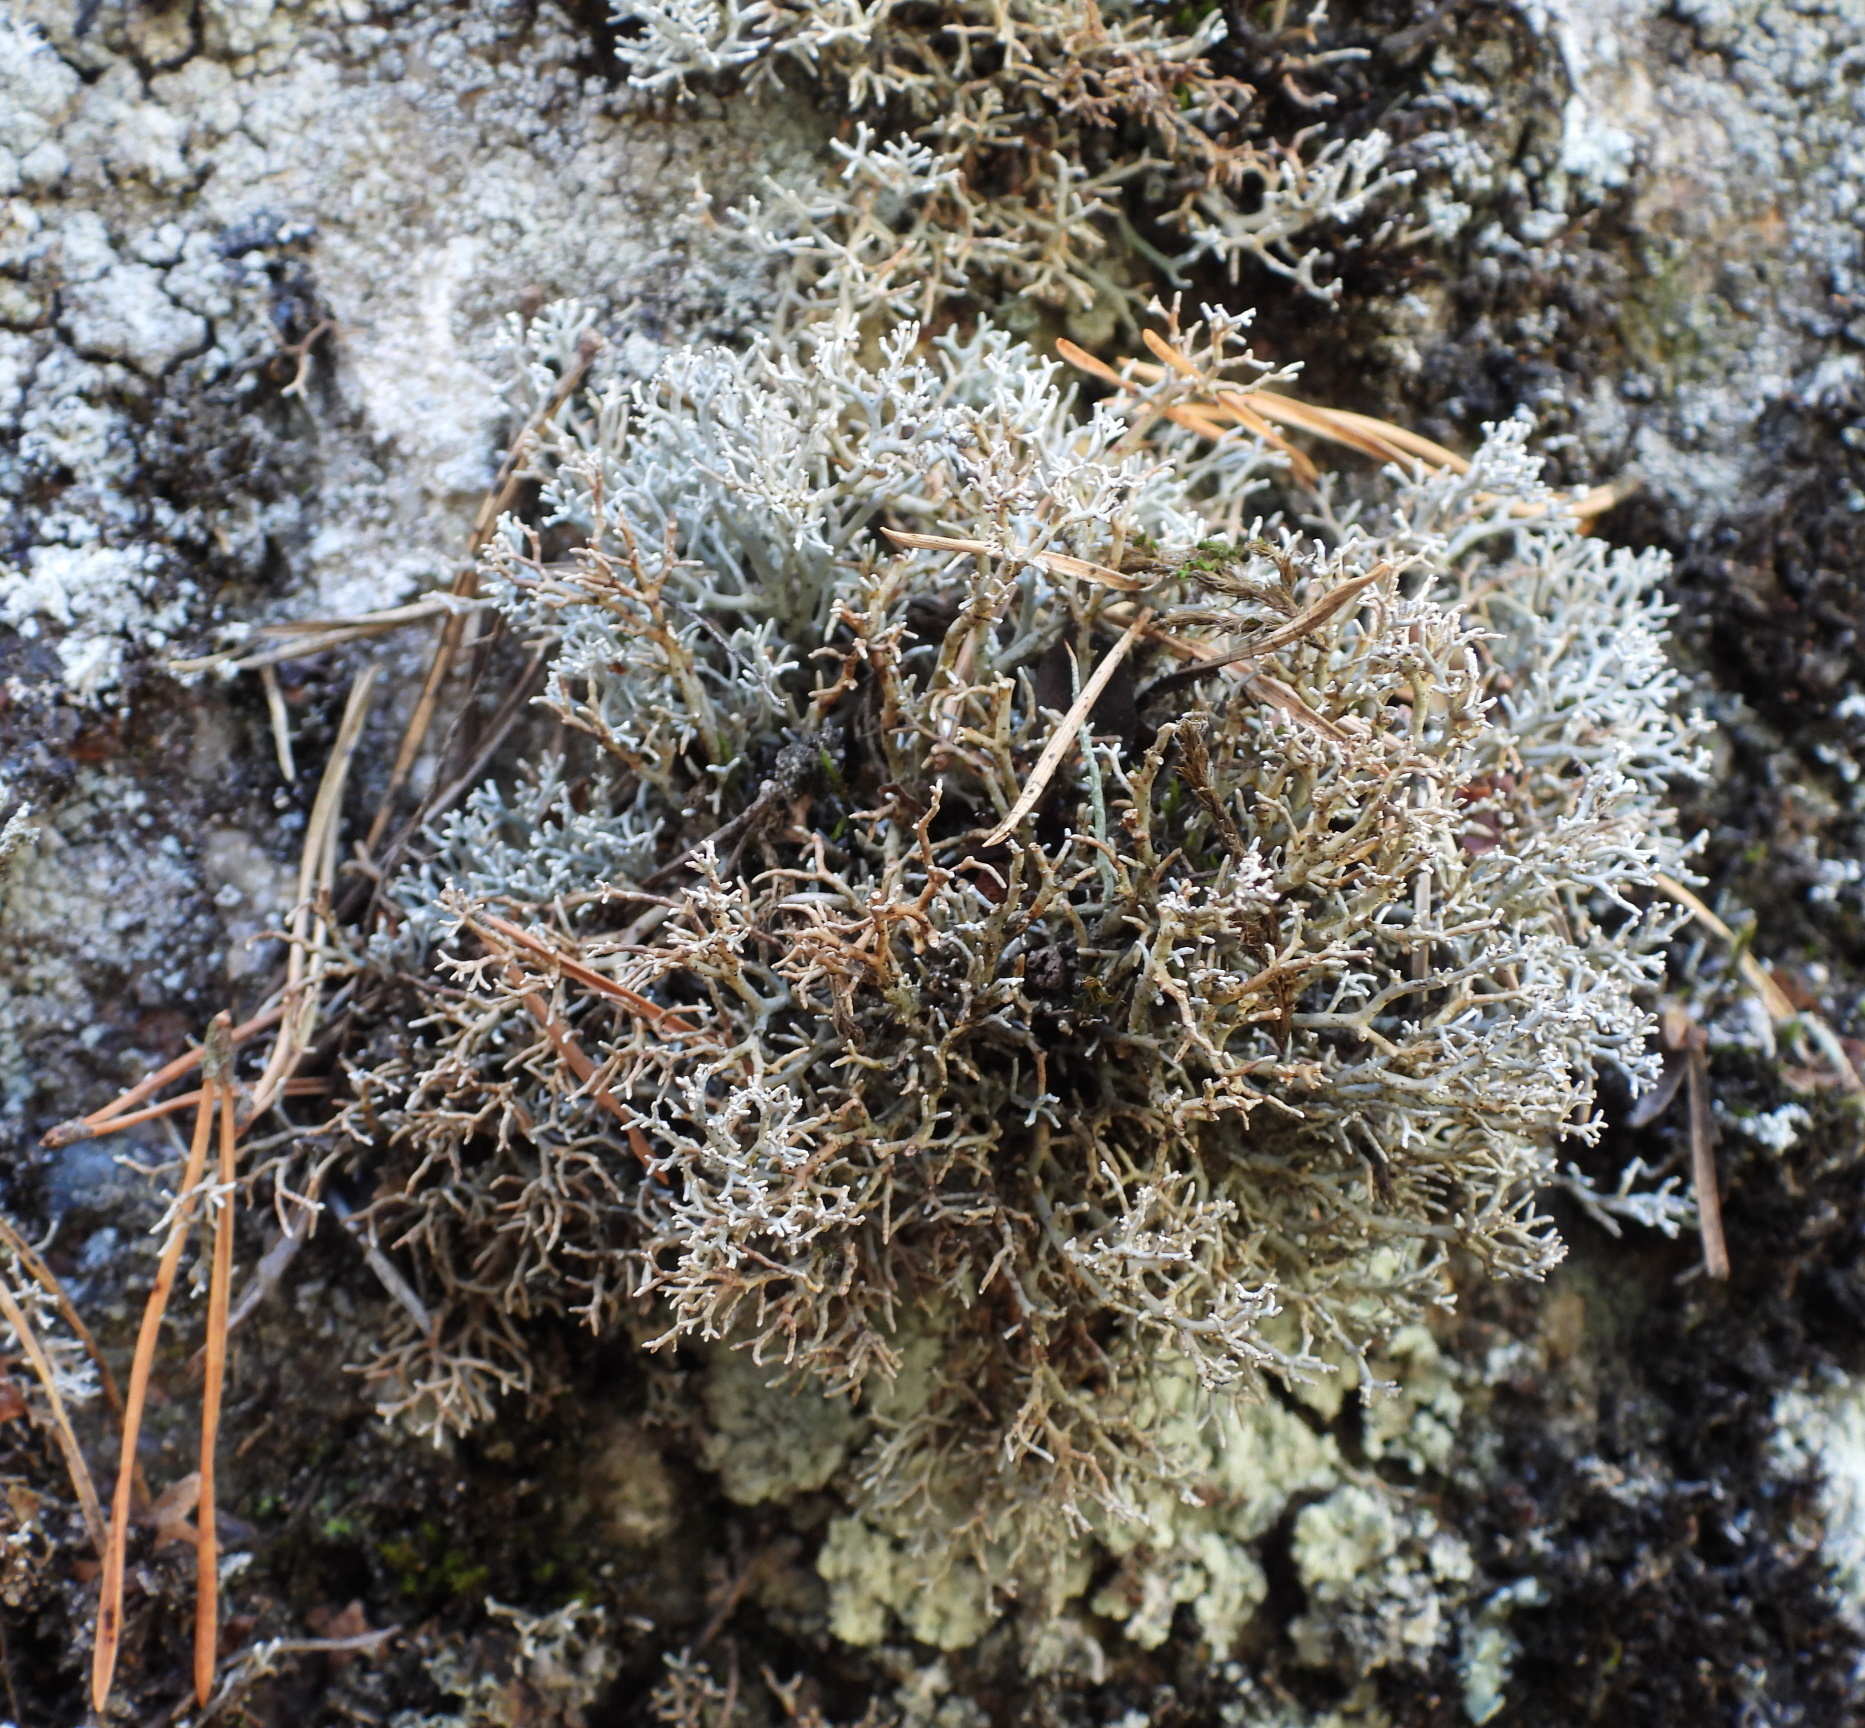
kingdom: Fungi
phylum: Ascomycota
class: Lecanoromycetes
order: Lecanorales
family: Sphaerophoraceae
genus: Sphaerophorus
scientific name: Sphaerophorus fragilis
